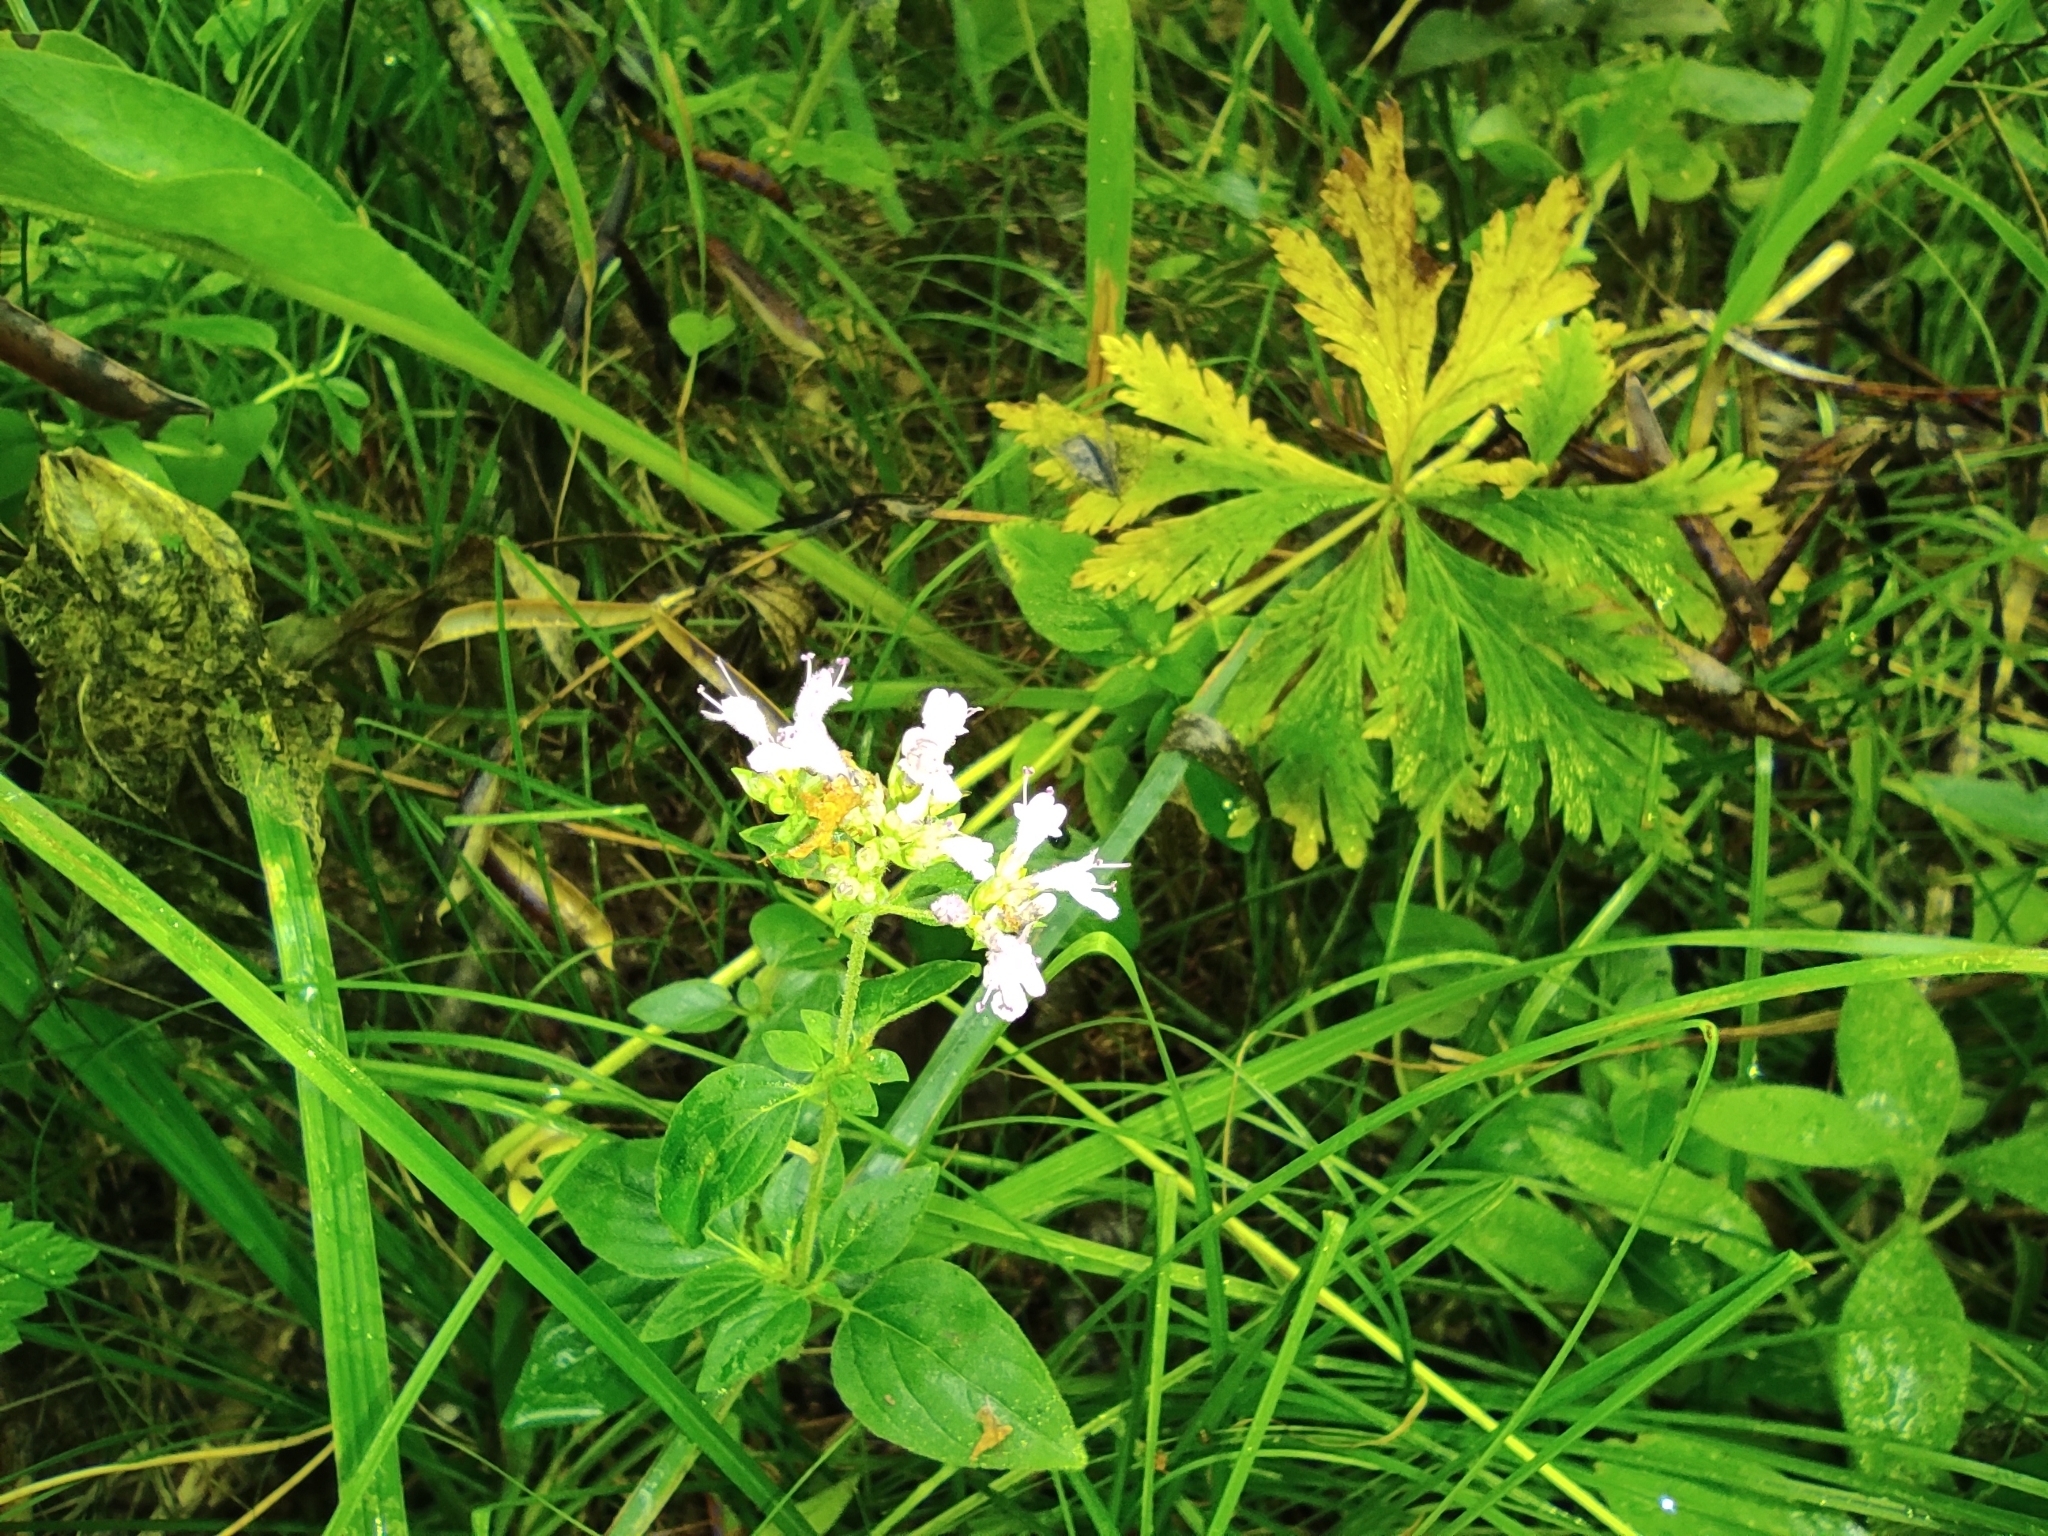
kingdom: Plantae
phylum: Tracheophyta
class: Magnoliopsida
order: Lamiales
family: Lamiaceae
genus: Origanum
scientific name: Origanum vulgare
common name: Wild marjoram
